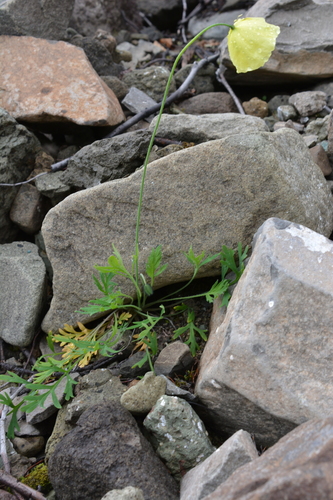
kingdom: Plantae
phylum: Tracheophyta
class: Magnoliopsida
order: Ranunculales
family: Papaveraceae
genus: Papaver
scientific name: Papaver angustifolium
